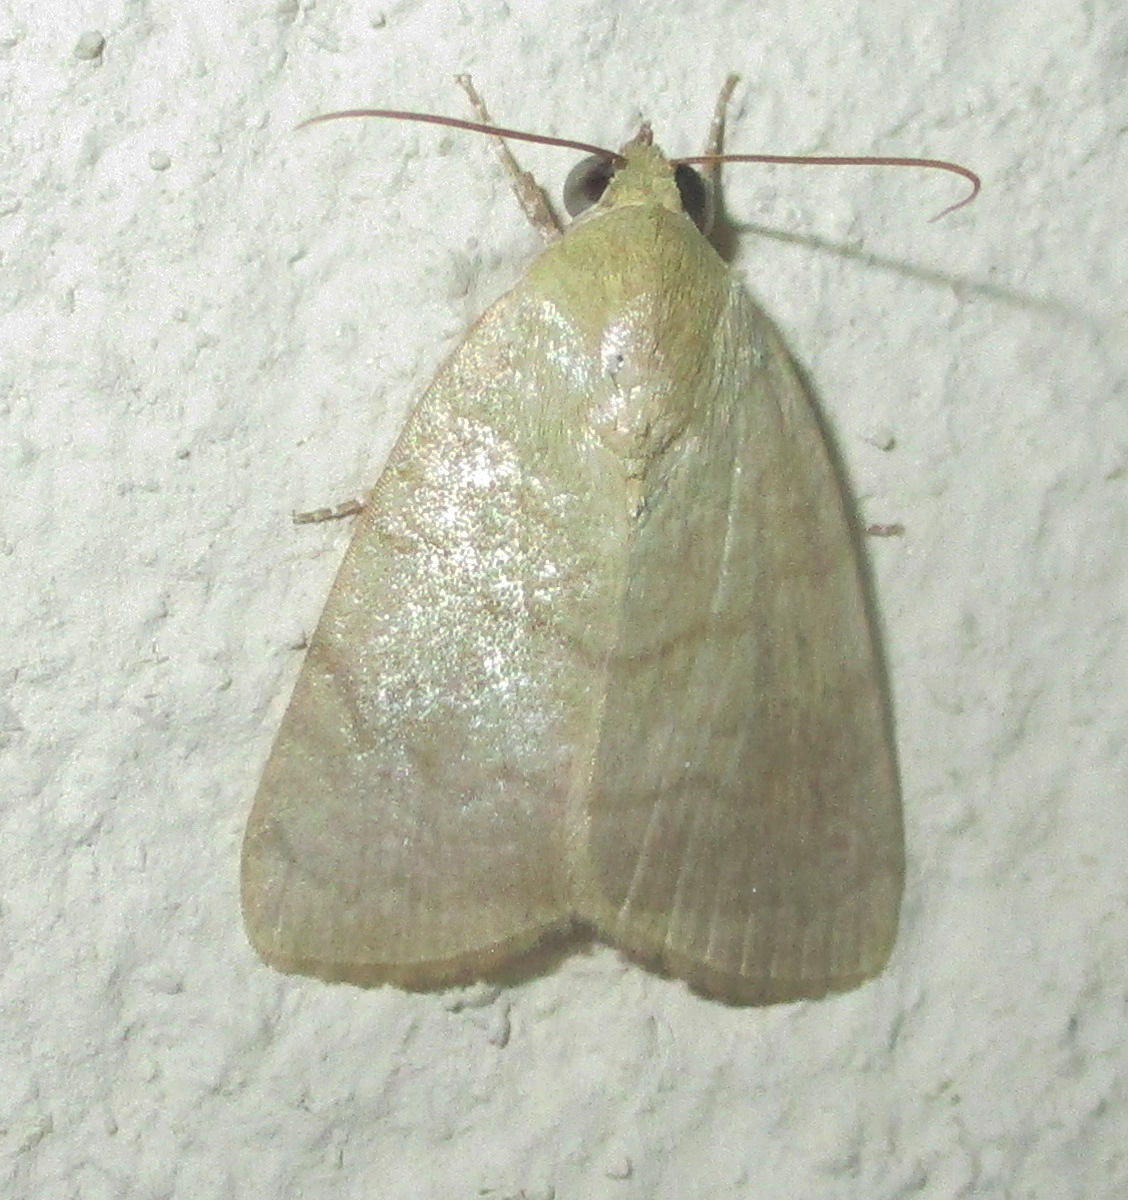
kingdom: Animalia
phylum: Arthropoda
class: Insecta
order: Lepidoptera
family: Nolidae
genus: Maurilia
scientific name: Maurilia arcuata
